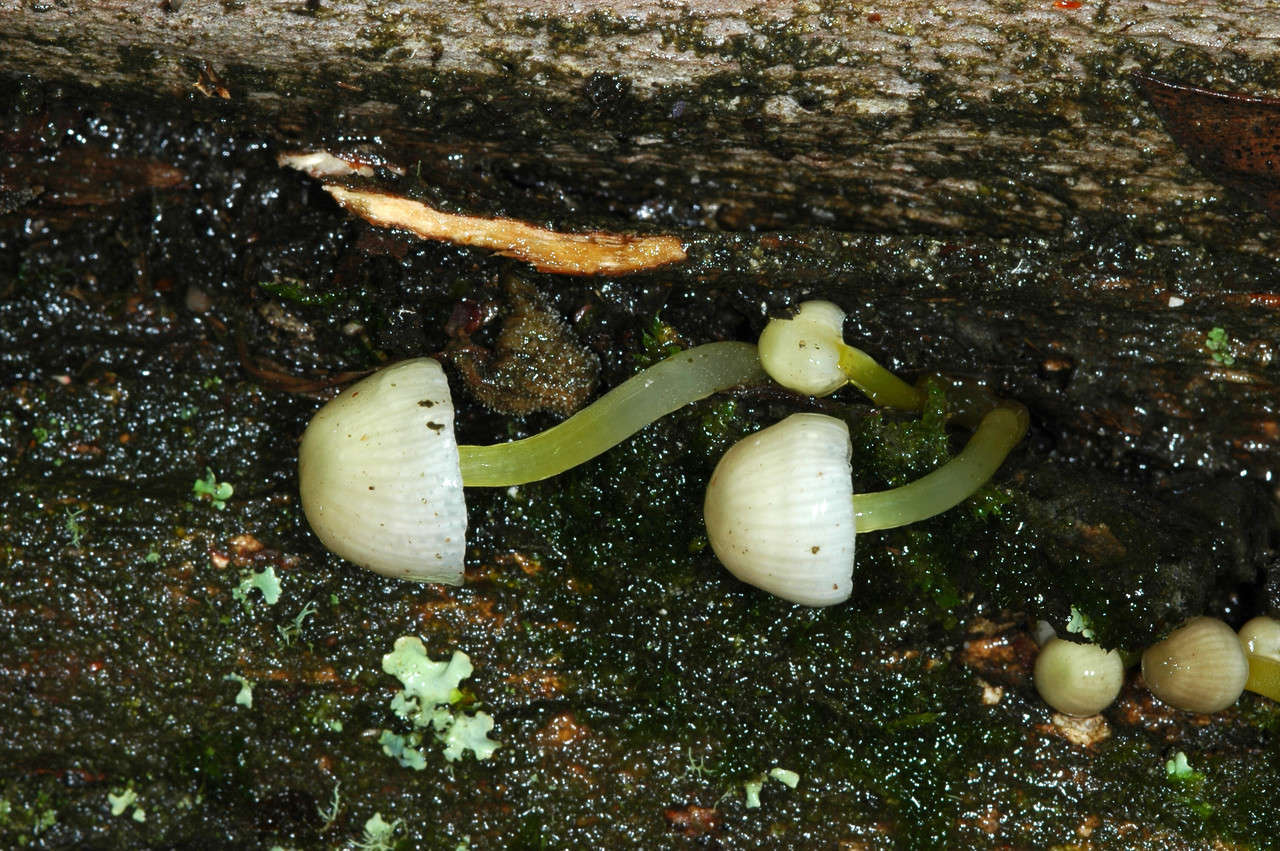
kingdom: Fungi
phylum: Basidiomycota
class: Agaricomycetes
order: Agaricales
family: Mycenaceae
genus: Mycena
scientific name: Mycena epipterygia
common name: Yellowleg bonnet
